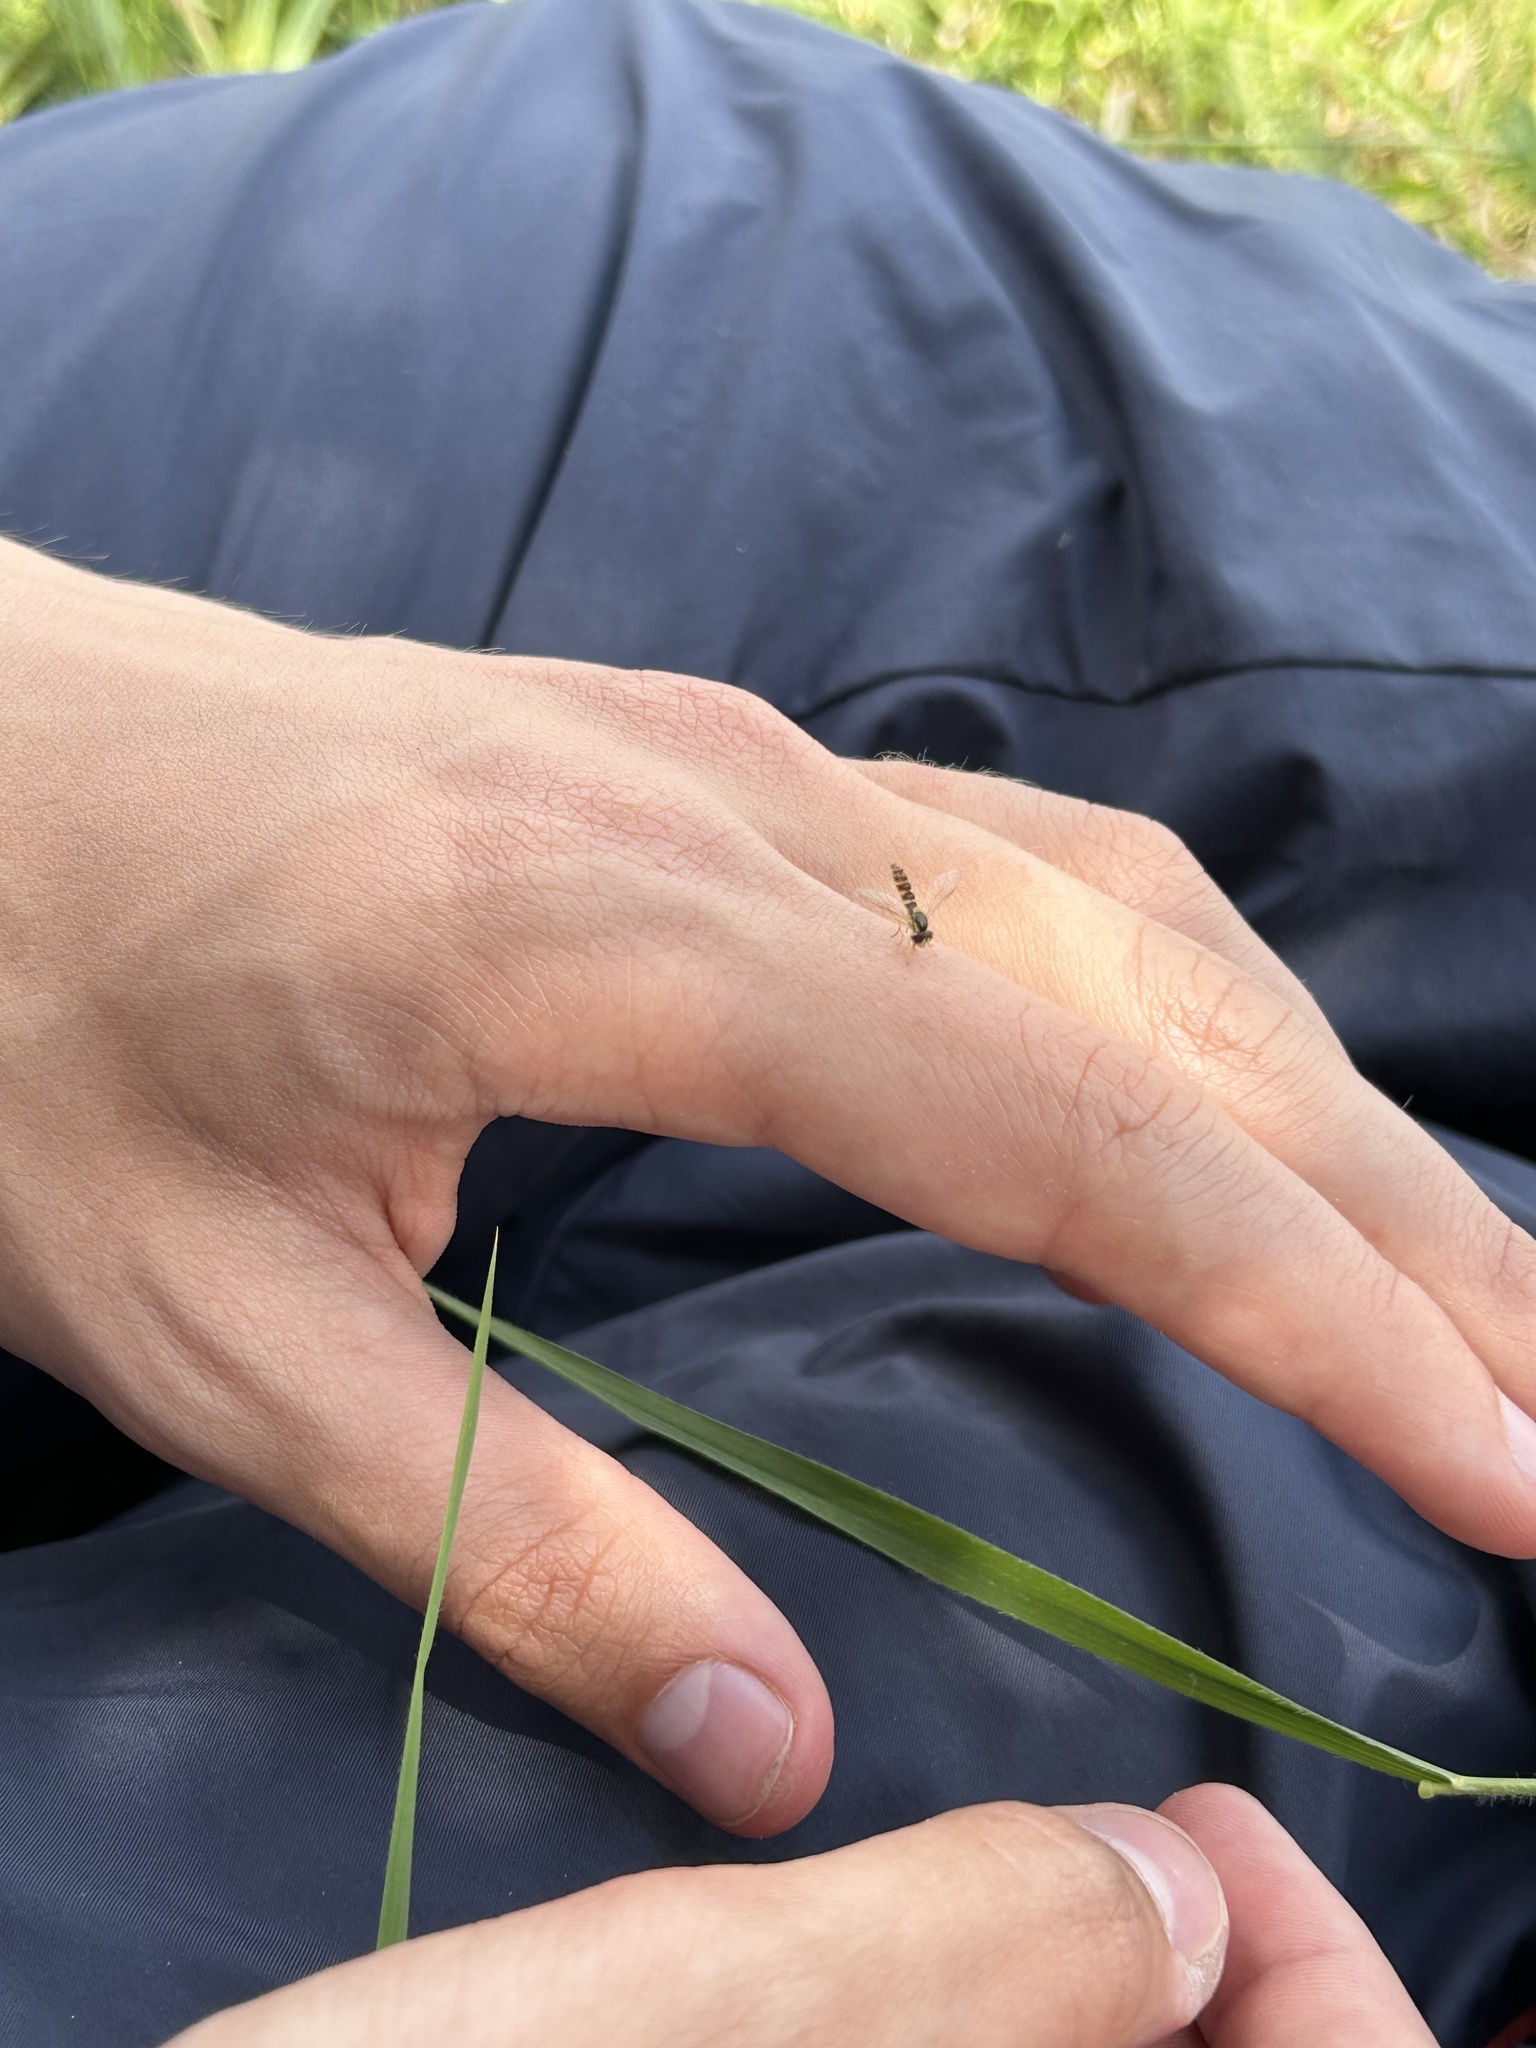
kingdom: Animalia
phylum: Arthropoda
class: Insecta
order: Diptera
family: Syrphidae
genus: Sphaerophoria
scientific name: Sphaerophoria
